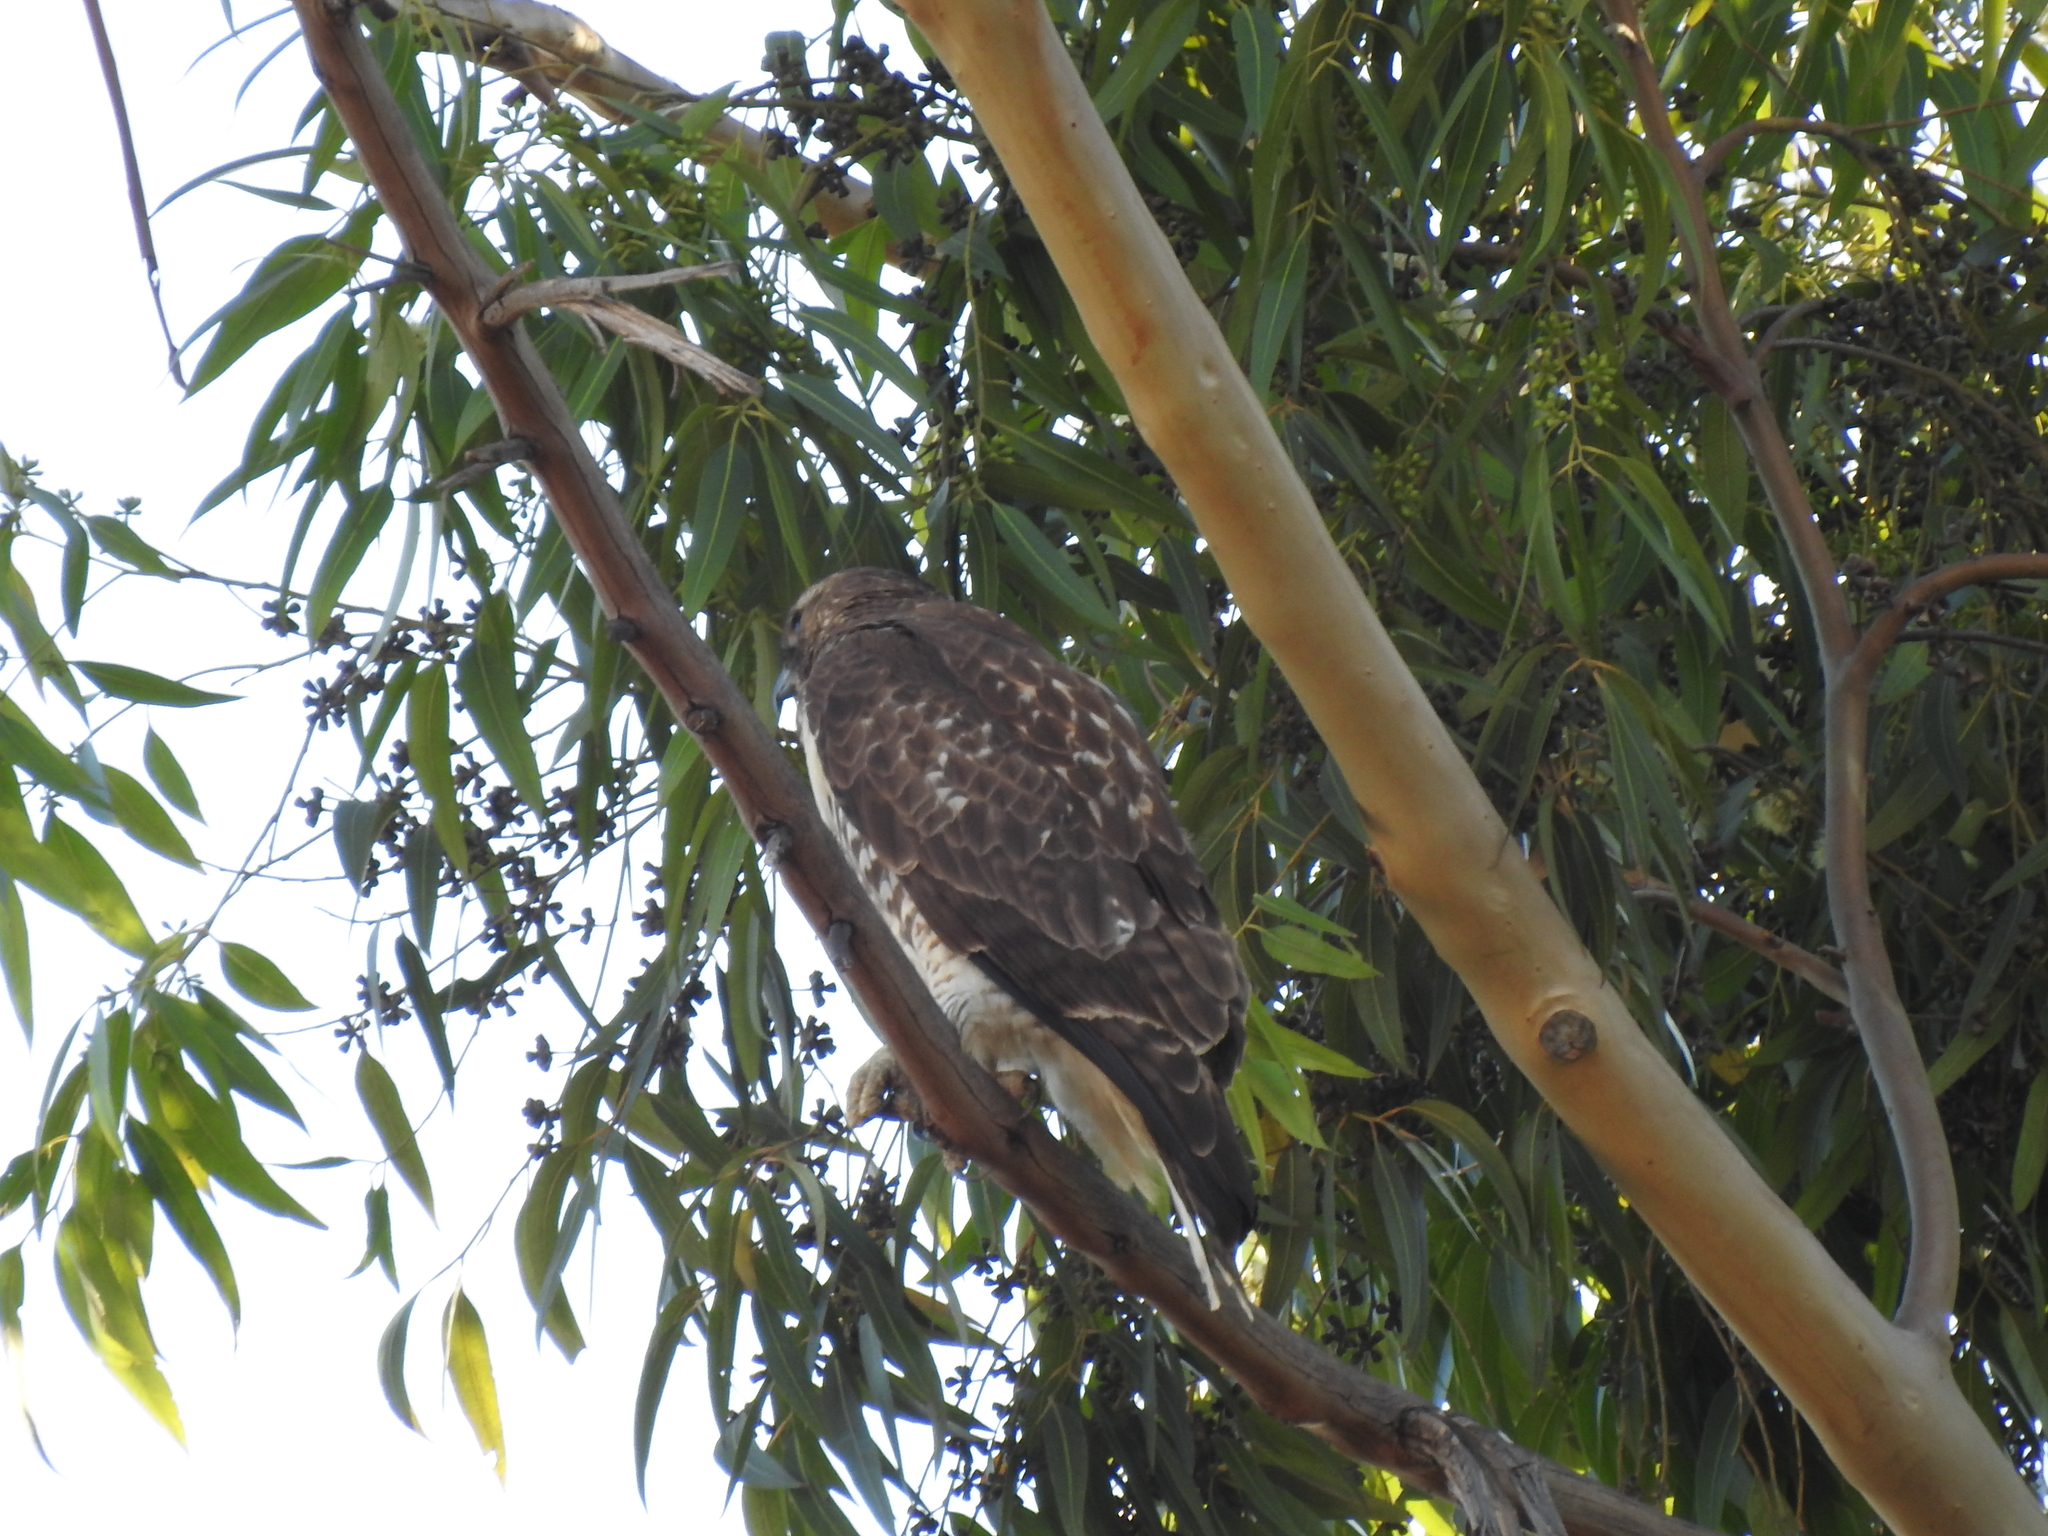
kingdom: Animalia
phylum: Chordata
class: Aves
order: Accipitriformes
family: Accipitridae
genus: Buteo
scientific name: Buteo jamaicensis
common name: Red-tailed hawk
